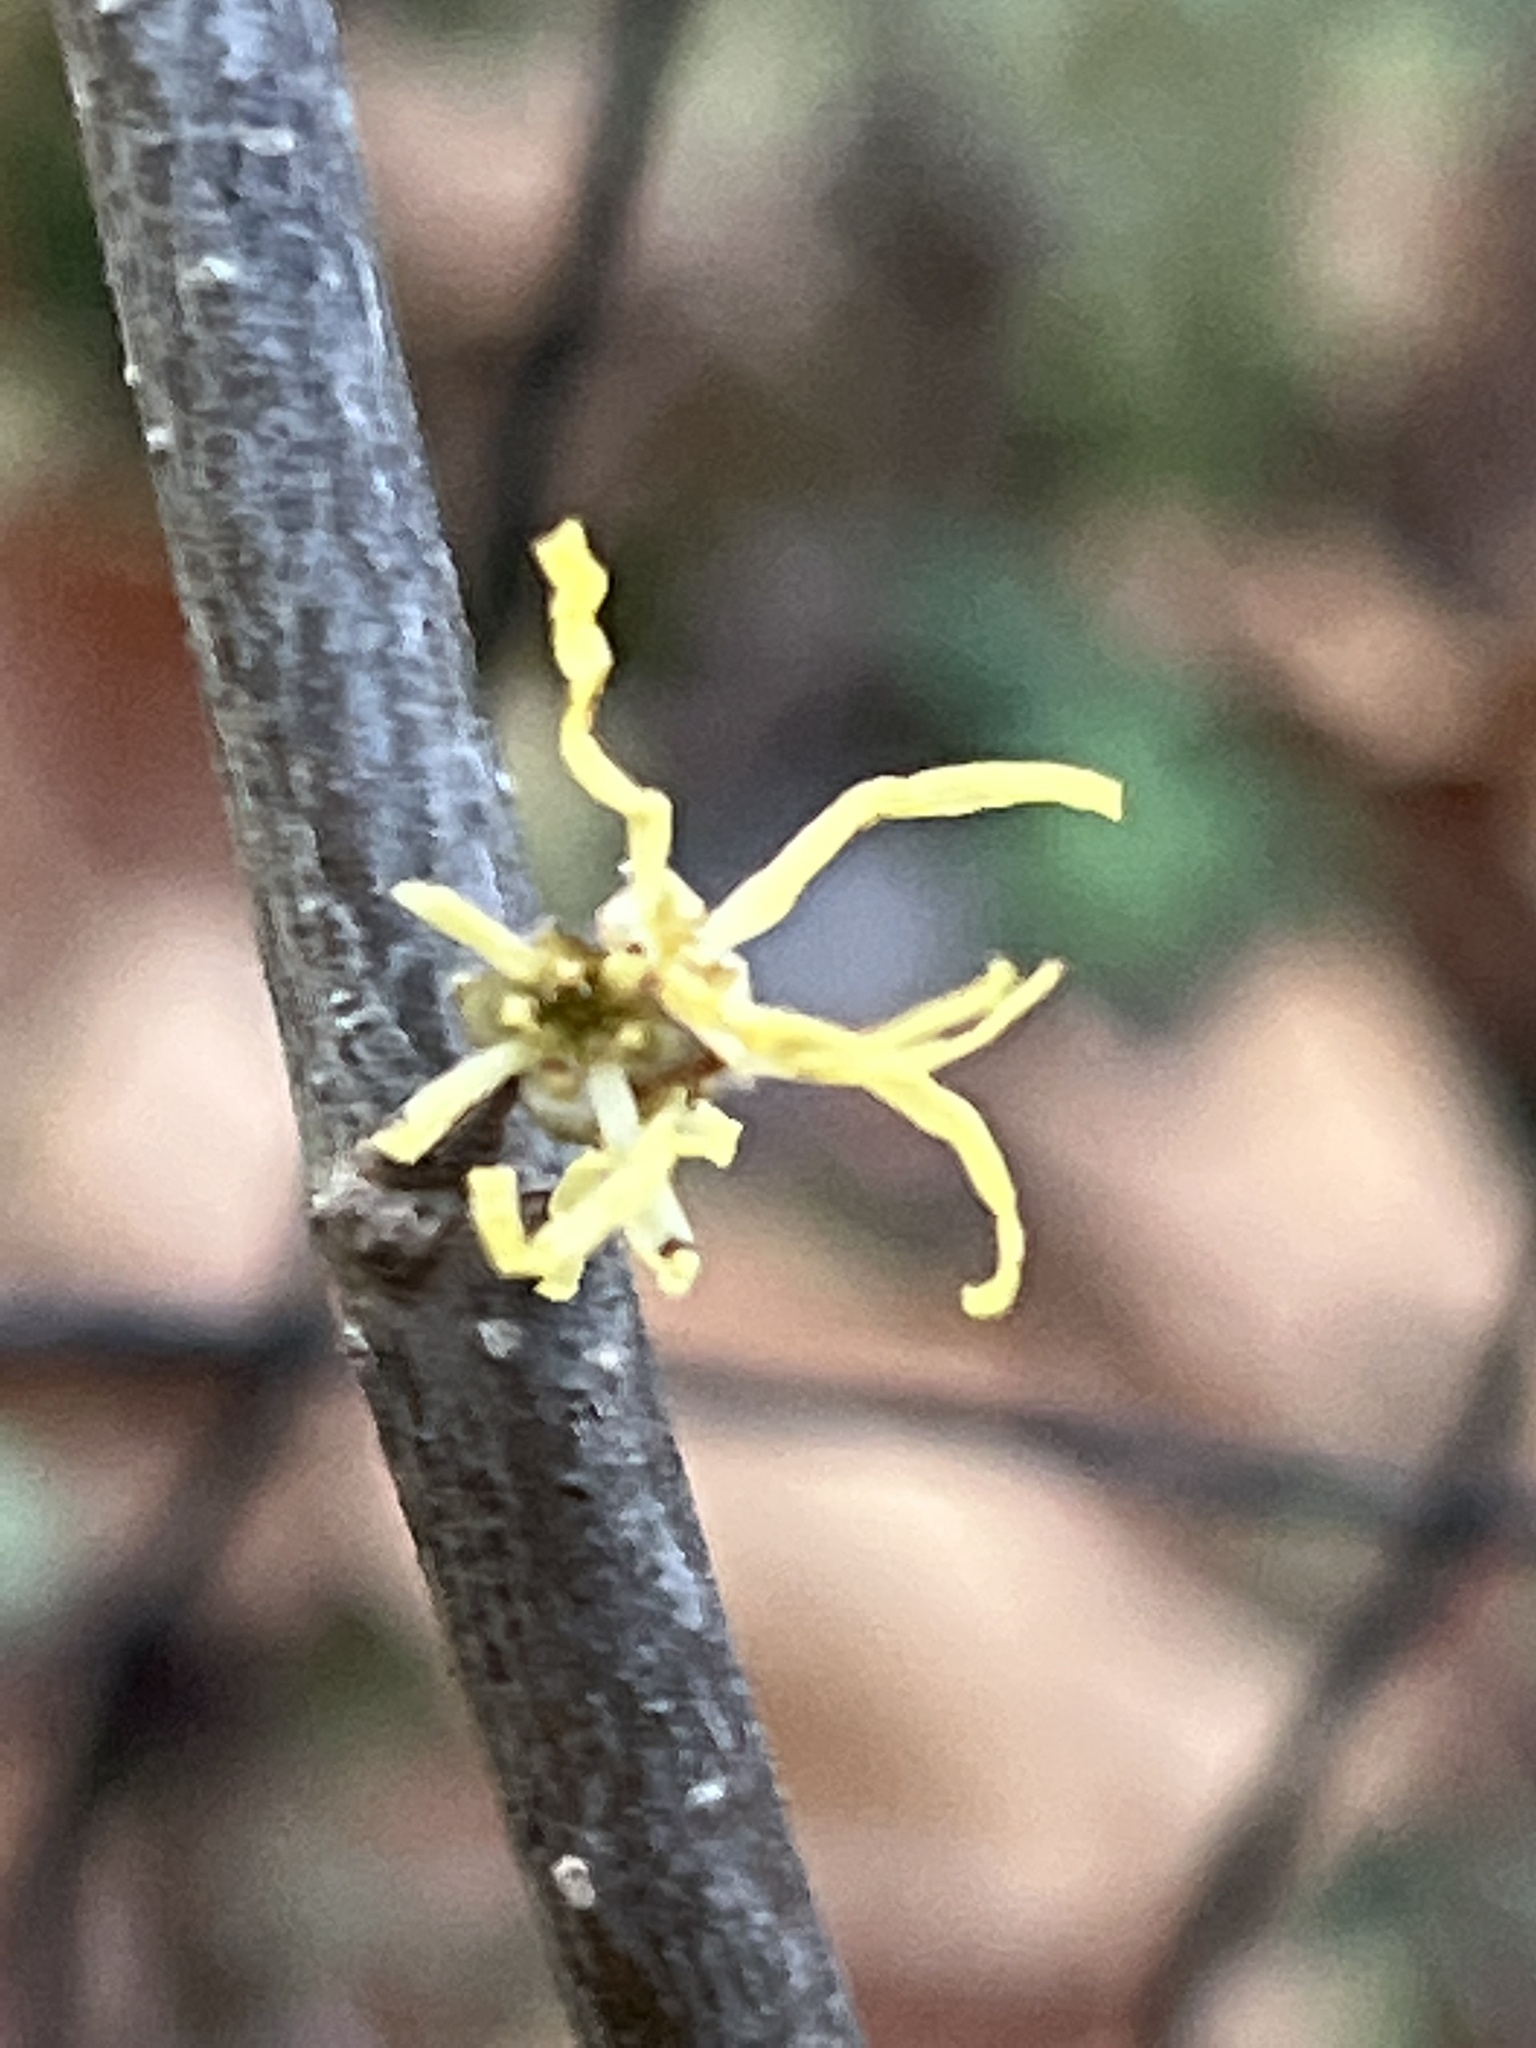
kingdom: Plantae
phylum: Tracheophyta
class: Magnoliopsida
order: Saxifragales
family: Hamamelidaceae
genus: Hamamelis
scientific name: Hamamelis virginiana
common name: Witch-hazel
